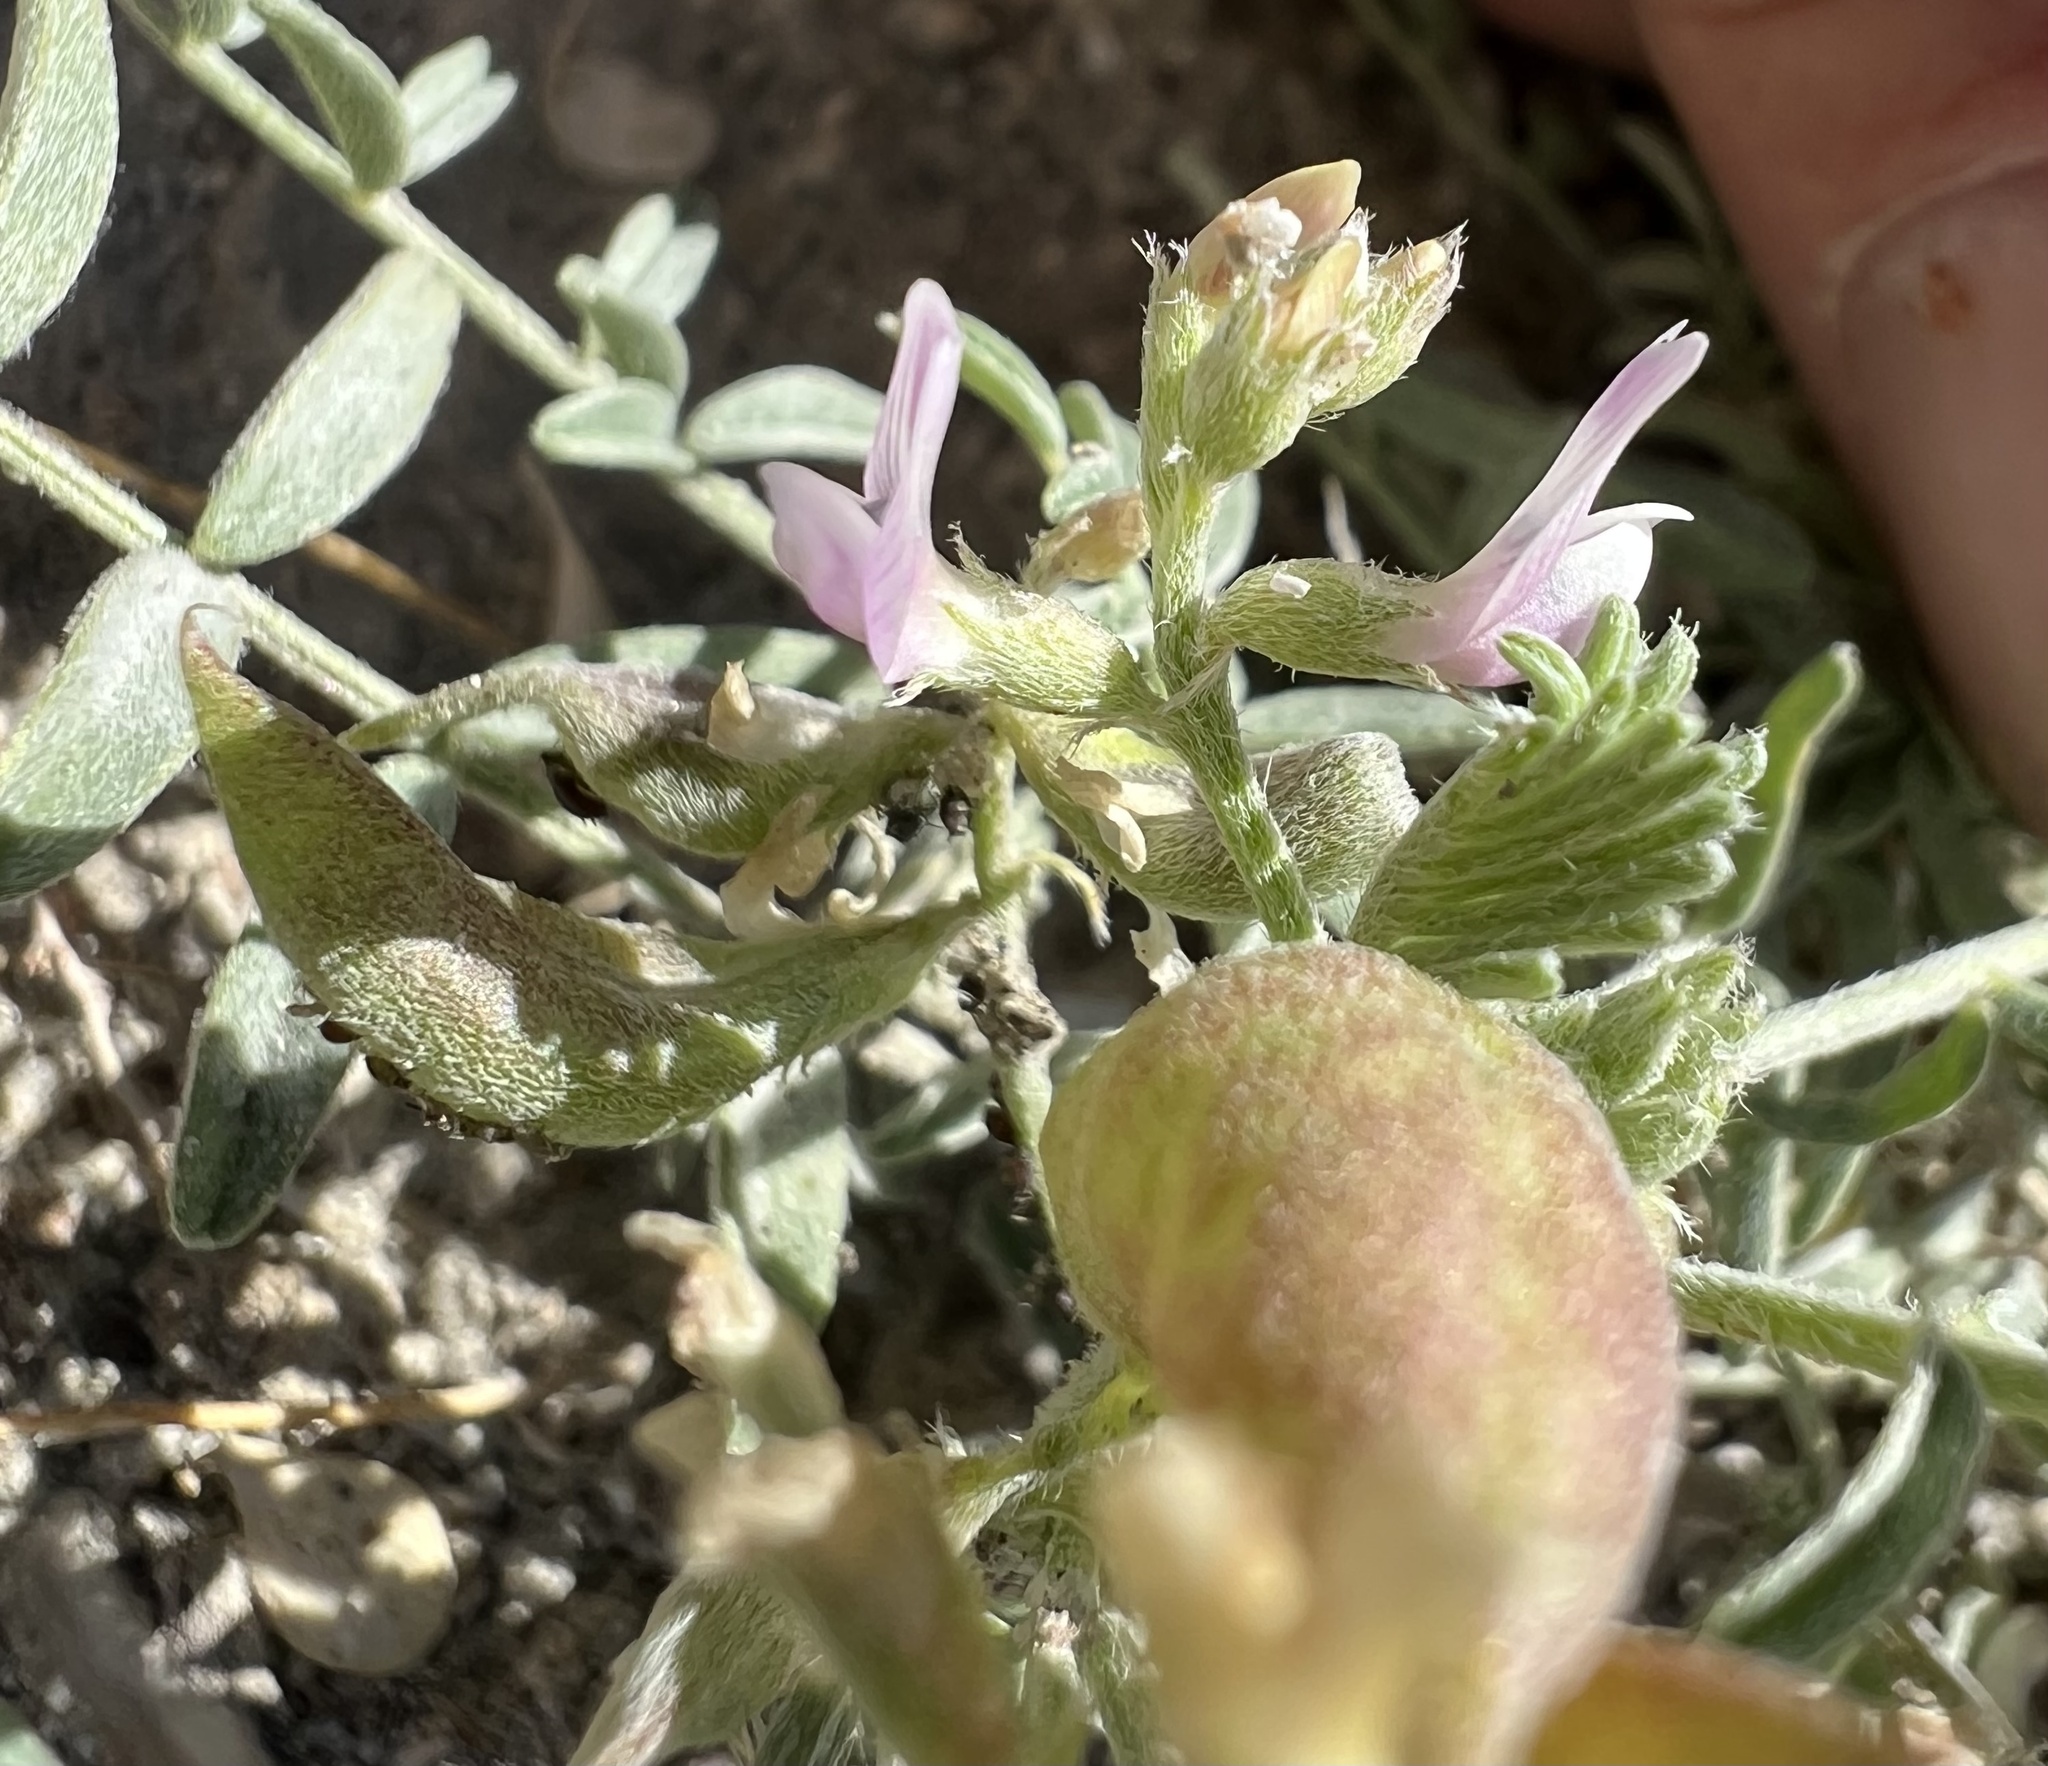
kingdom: Plantae
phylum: Tracheophyta
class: Magnoliopsida
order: Fabales
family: Fabaceae
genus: Astragalus
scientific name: Astragalus geyeri
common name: Geyer's milkvetch
